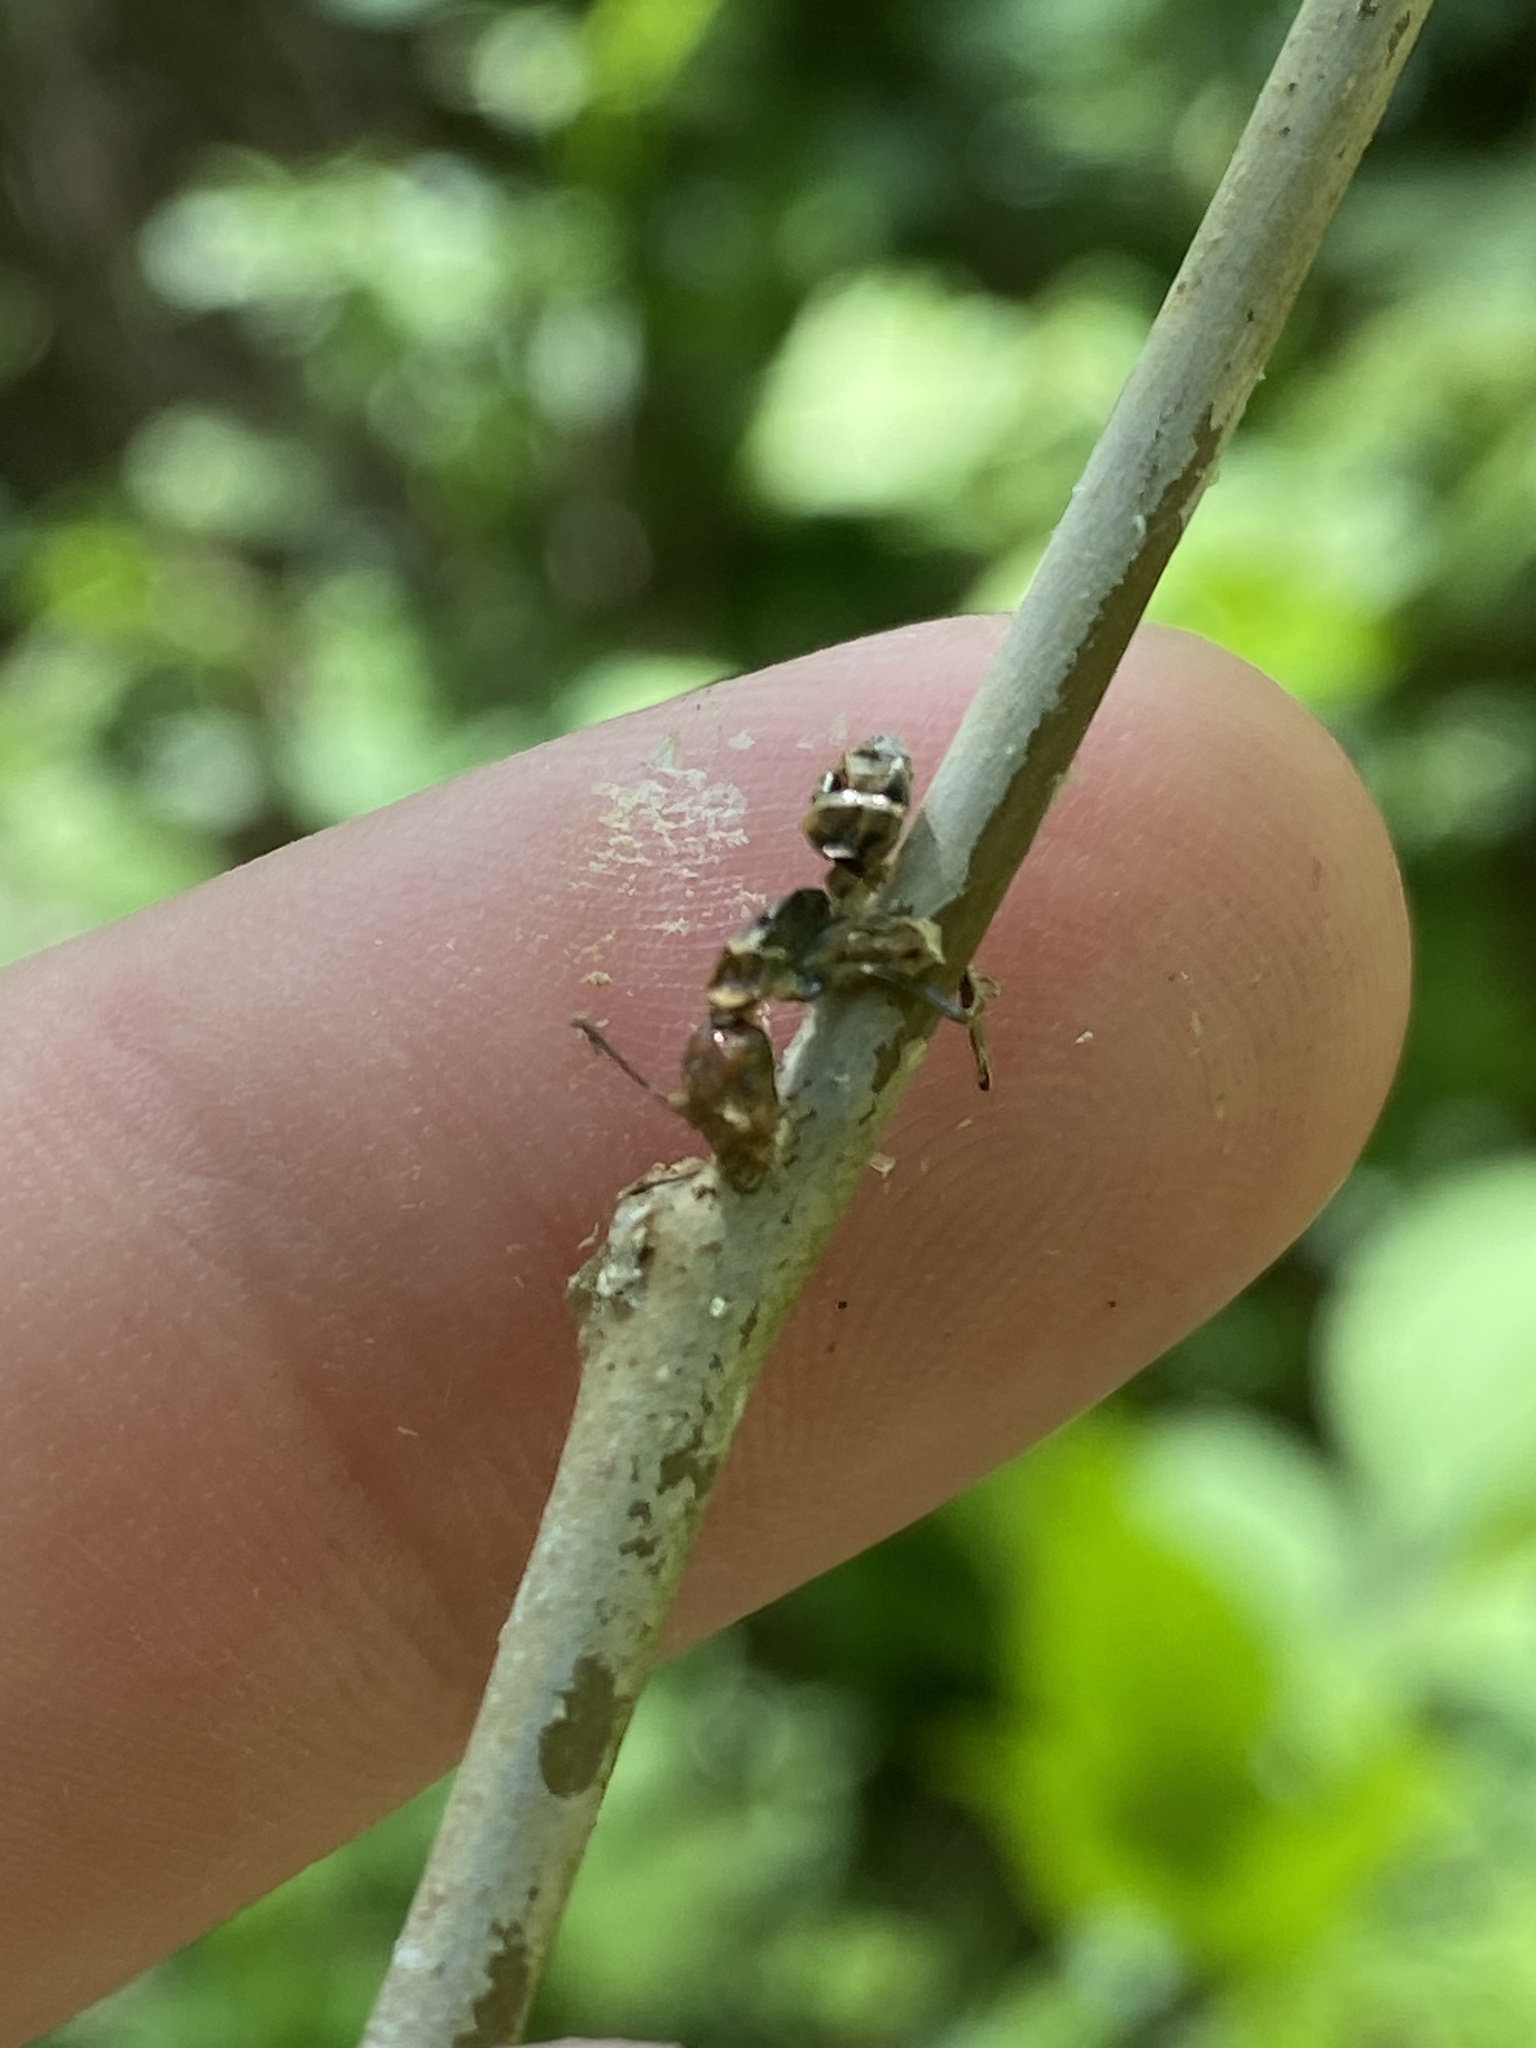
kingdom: Fungi
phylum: Ascomycota
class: Sordariomycetes
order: Hypocreales
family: Ophiocordycipitaceae
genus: Ophiocordyceps
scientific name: Ophiocordyceps kimflemingiae
